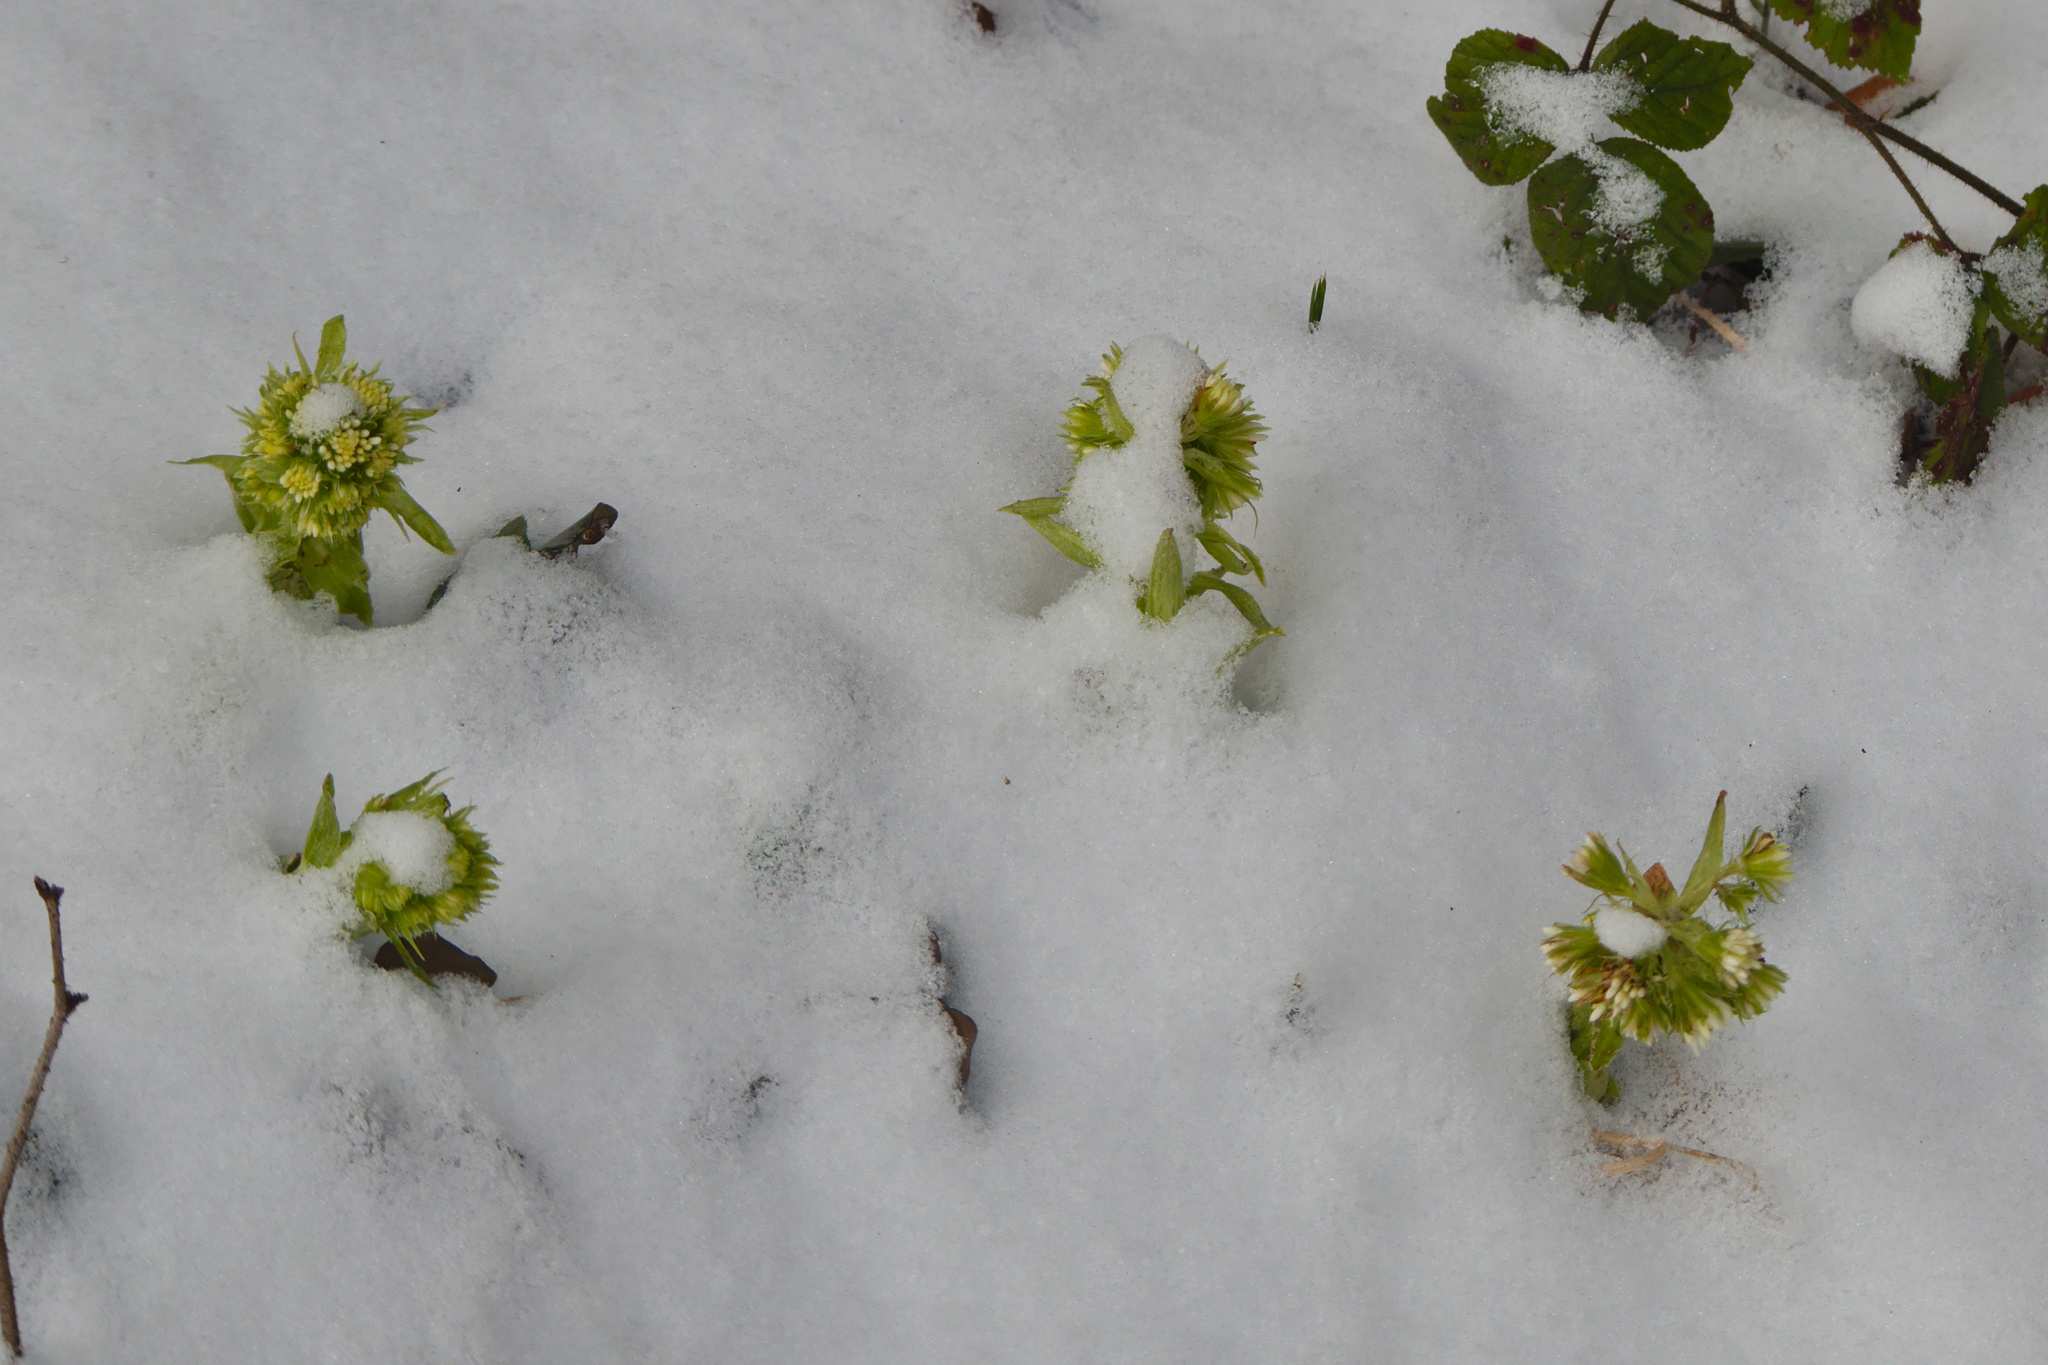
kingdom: Plantae
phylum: Tracheophyta
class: Magnoliopsida
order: Asterales
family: Asteraceae
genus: Petasites
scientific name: Petasites albus
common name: White butterbur
